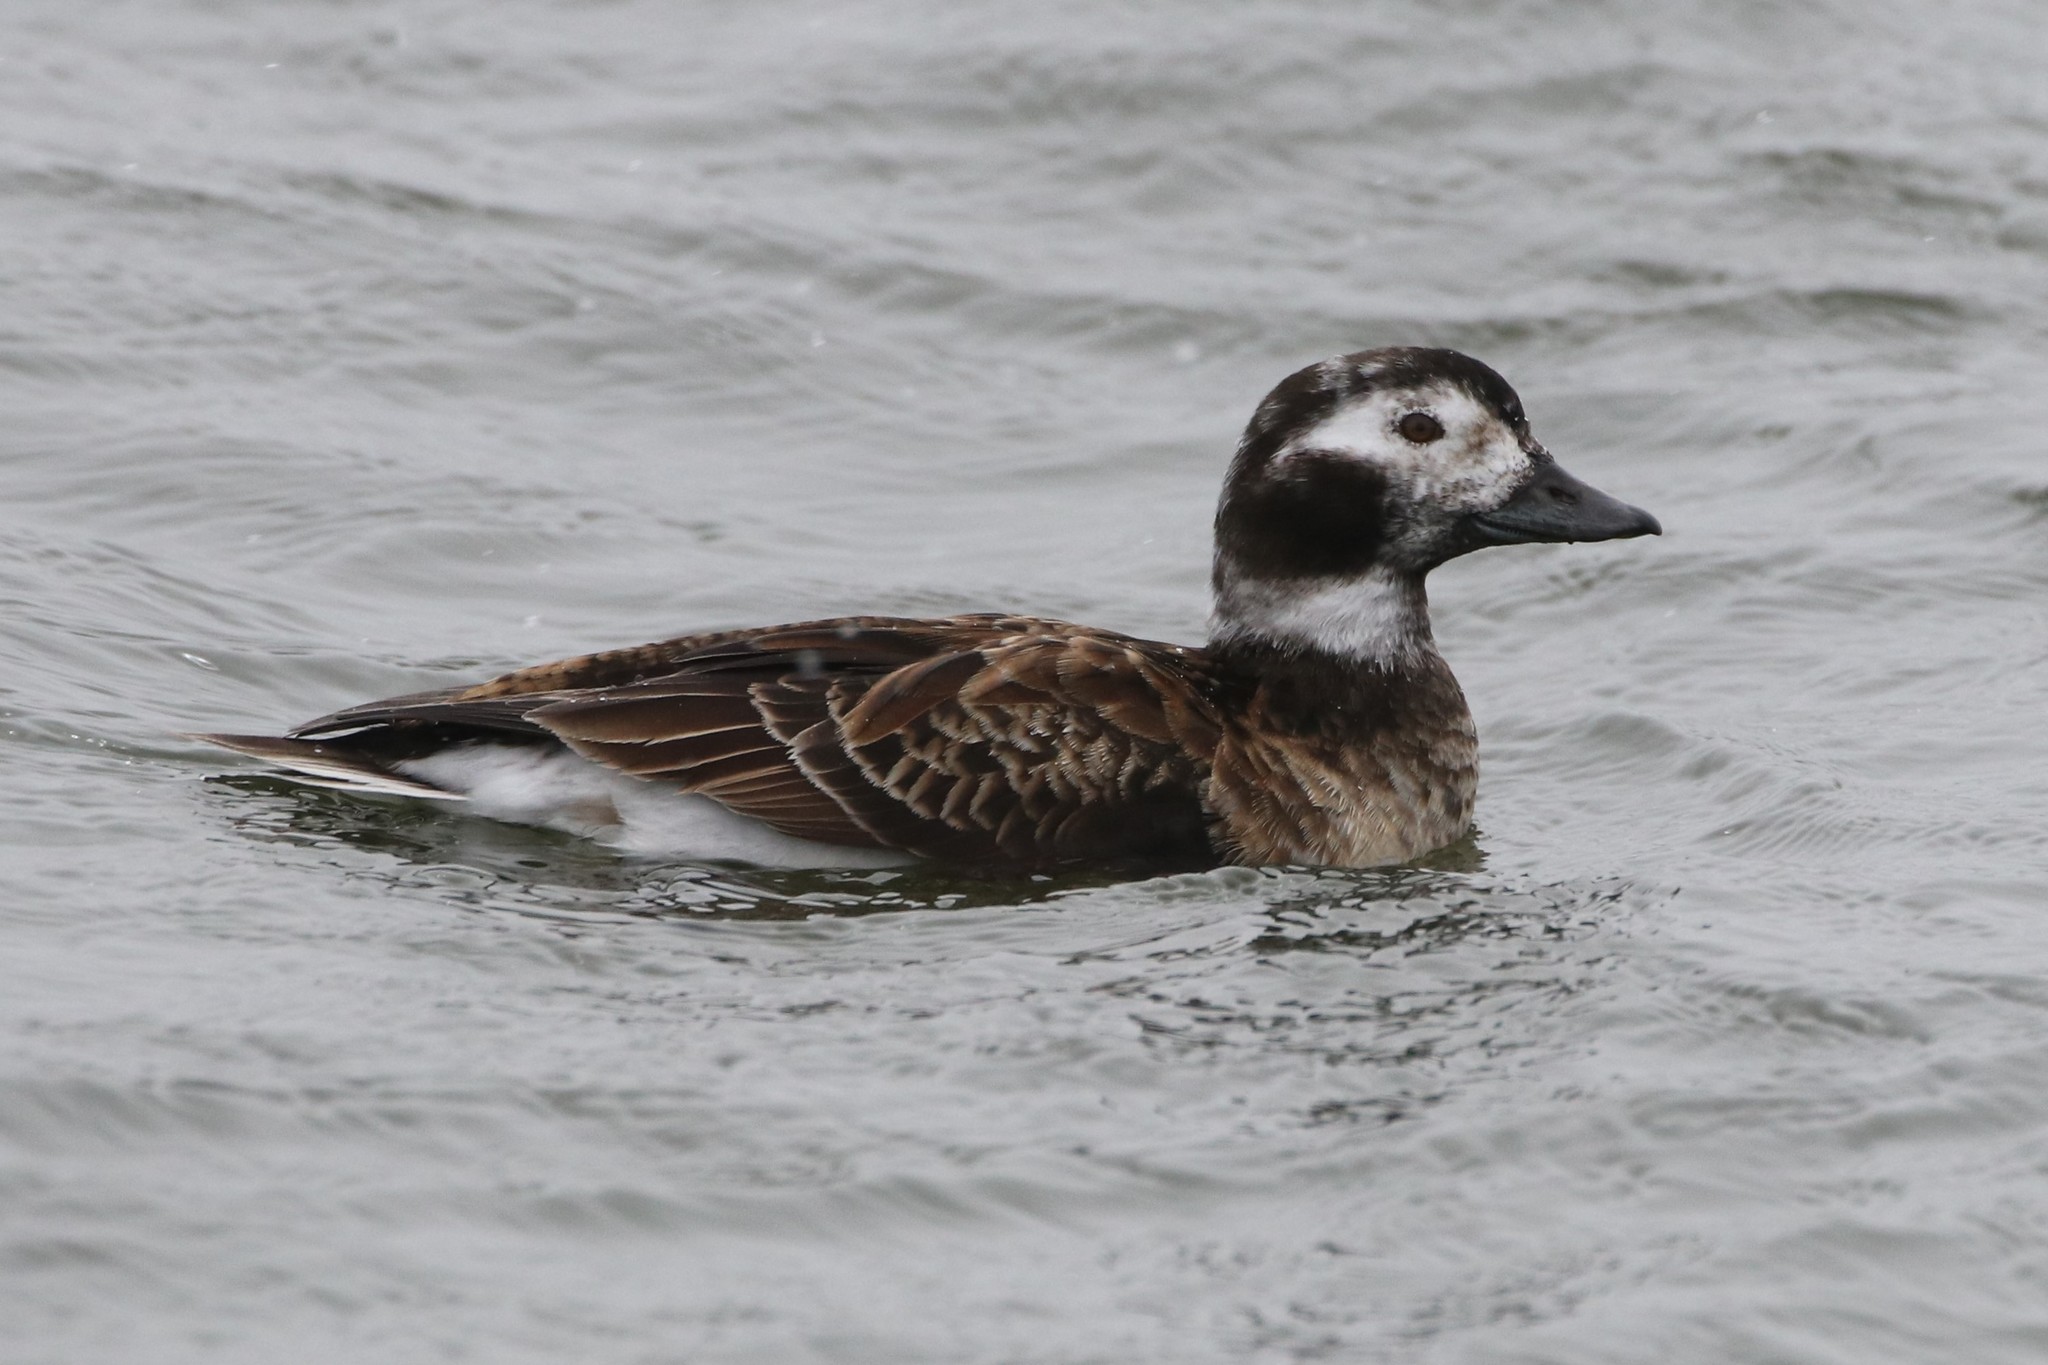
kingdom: Animalia
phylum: Chordata
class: Aves
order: Anseriformes
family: Anatidae
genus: Clangula
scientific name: Clangula hyemalis
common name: Long-tailed duck
